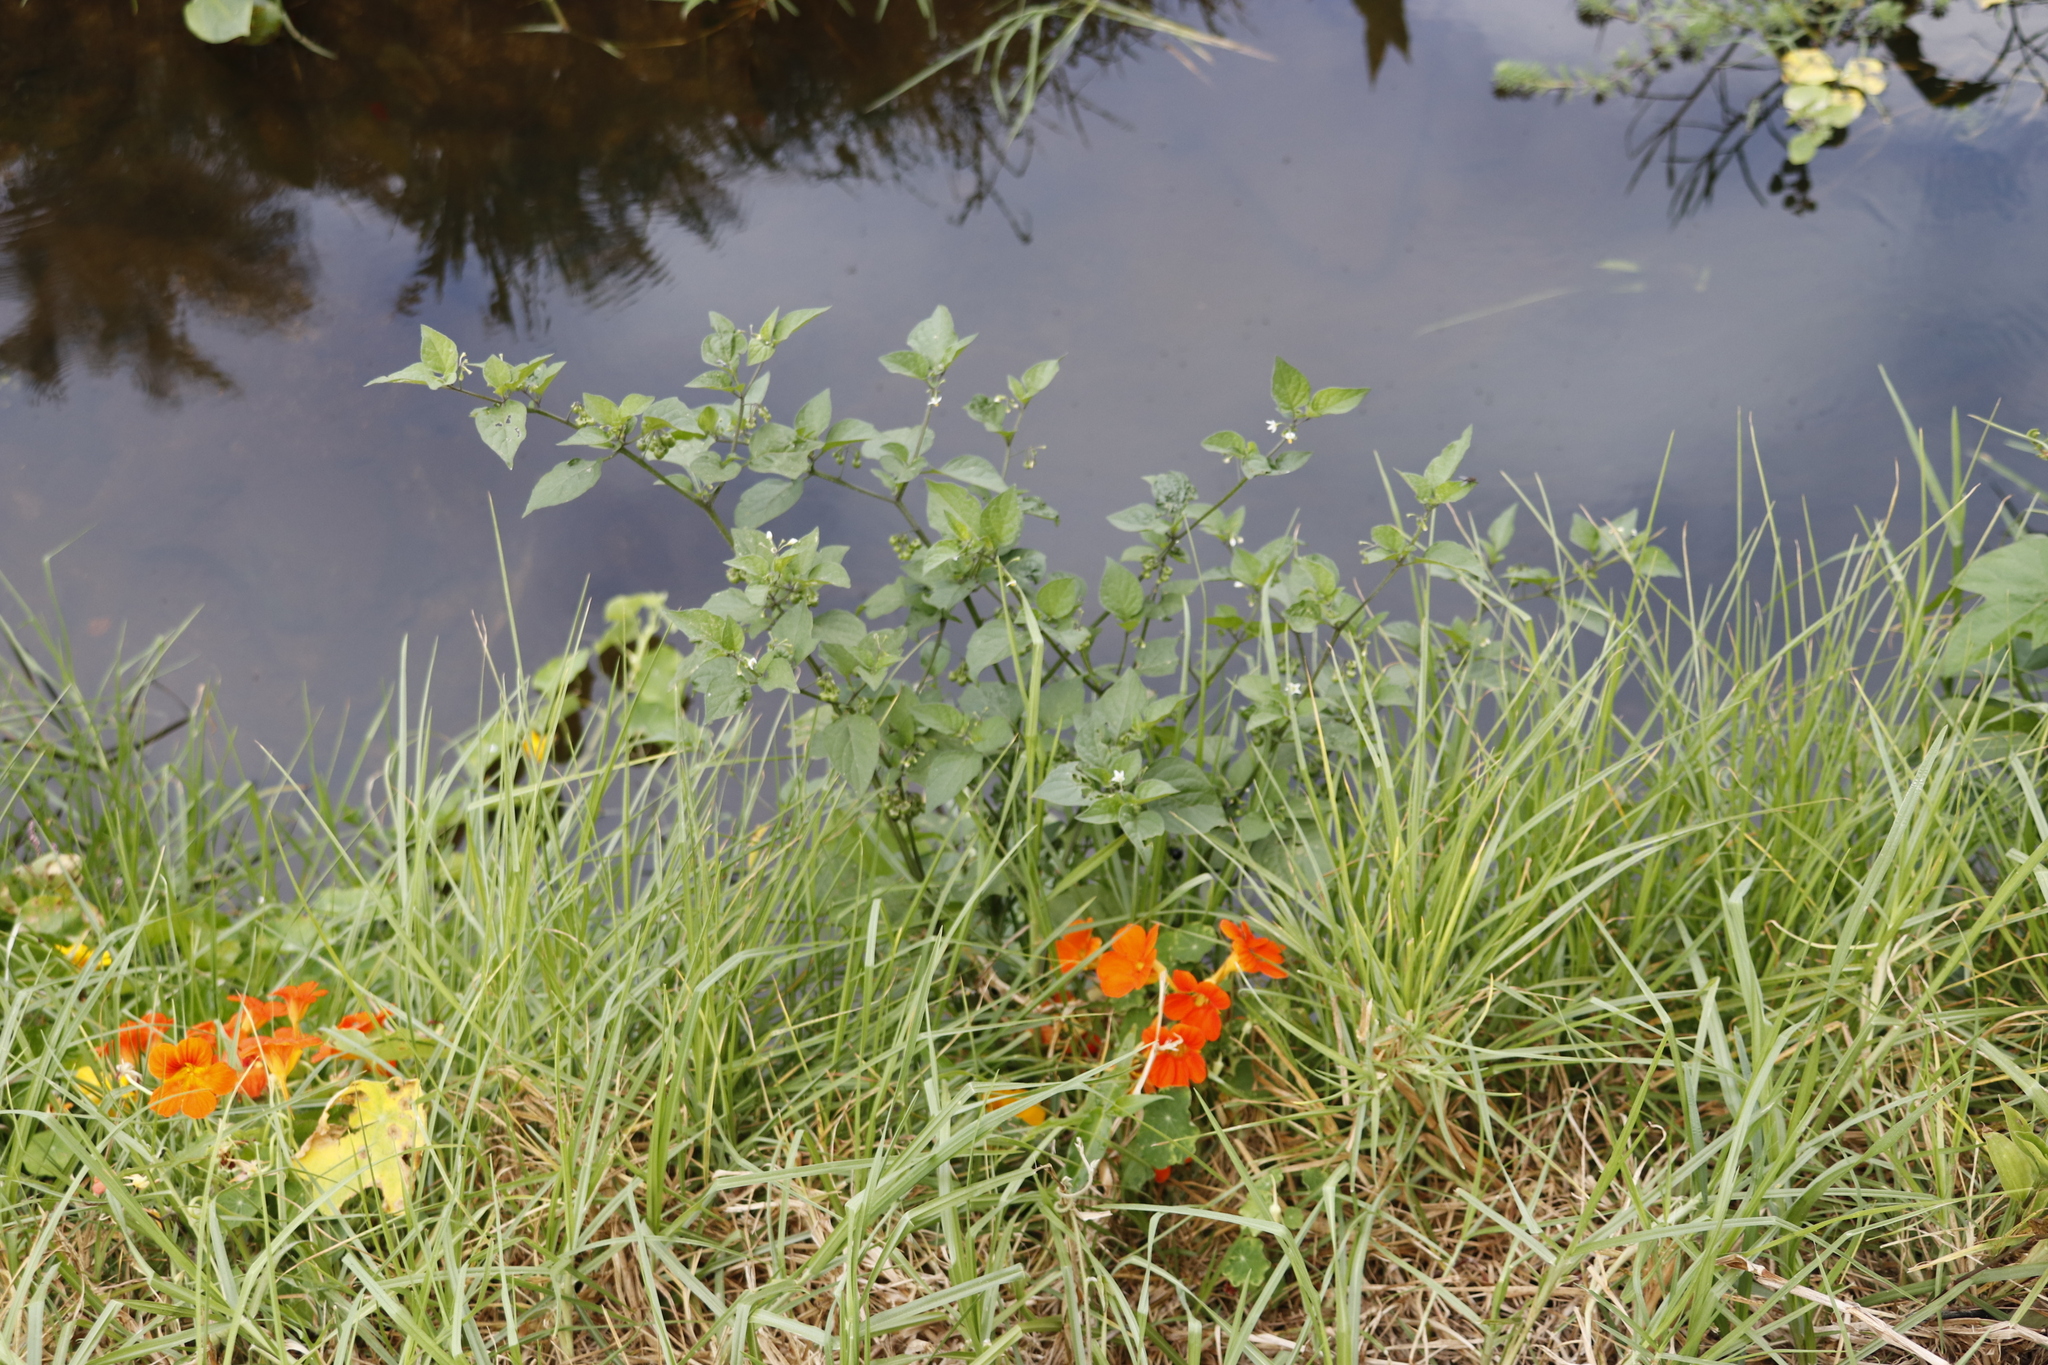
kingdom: Plantae
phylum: Tracheophyta
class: Magnoliopsida
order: Solanales
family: Solanaceae
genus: Solanum
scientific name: Solanum nigrum
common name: Black nightshade
